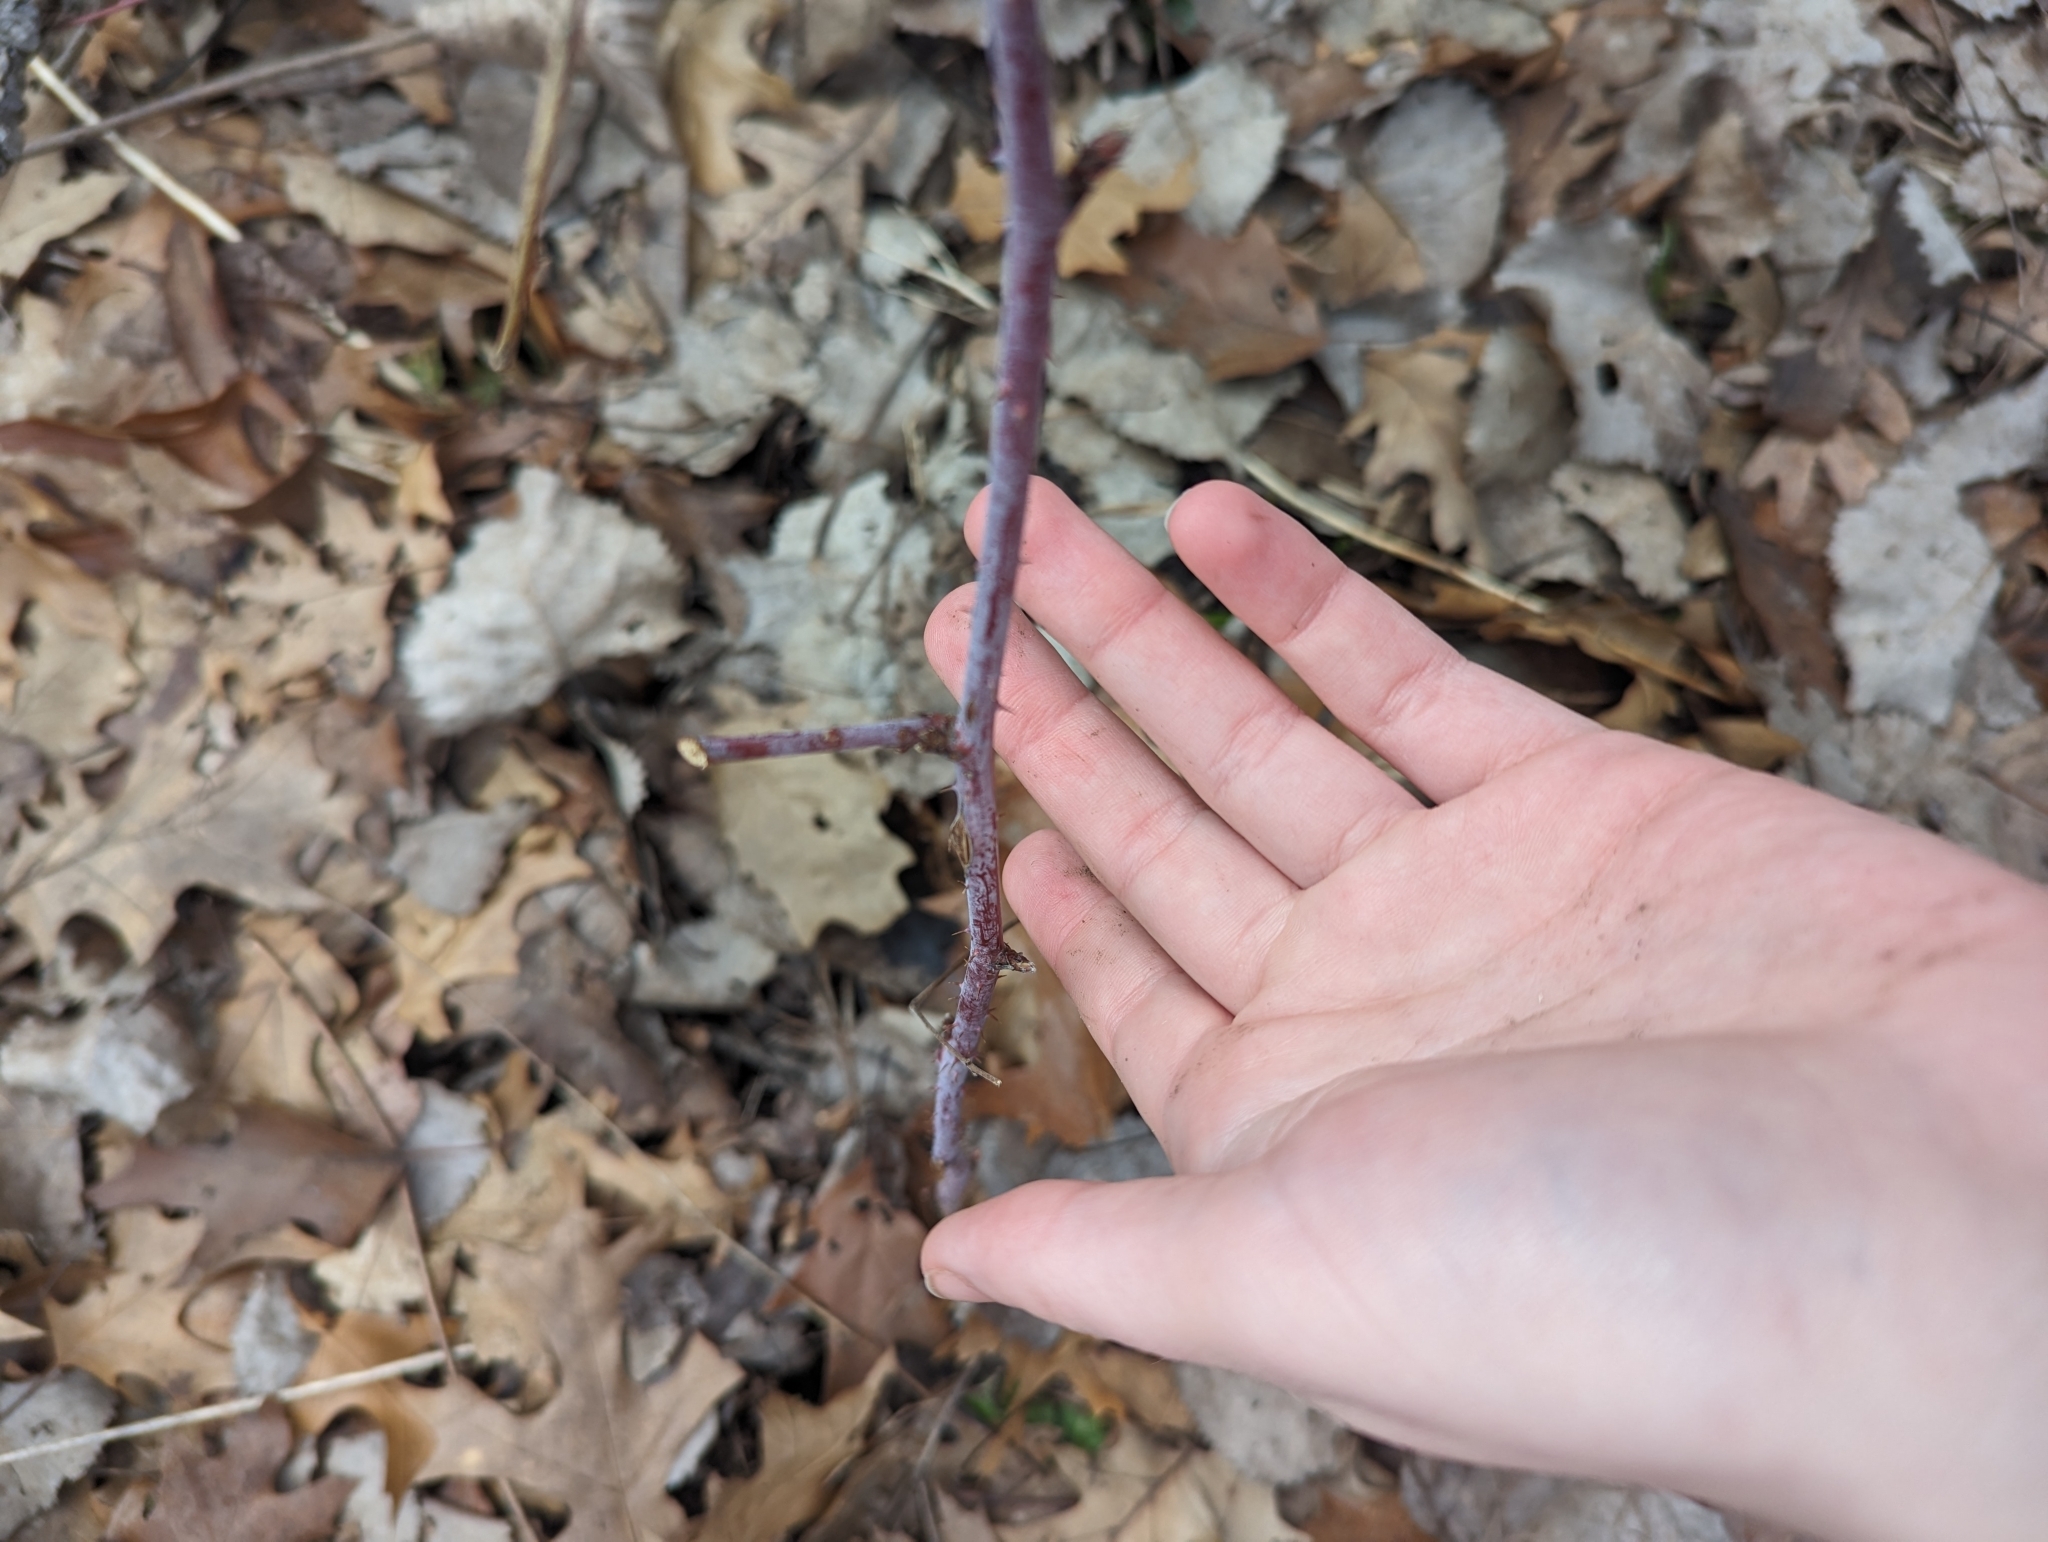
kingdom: Plantae
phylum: Tracheophyta
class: Magnoliopsida
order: Rosales
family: Rosaceae
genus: Rubus
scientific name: Rubus occidentalis
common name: Black raspberry
